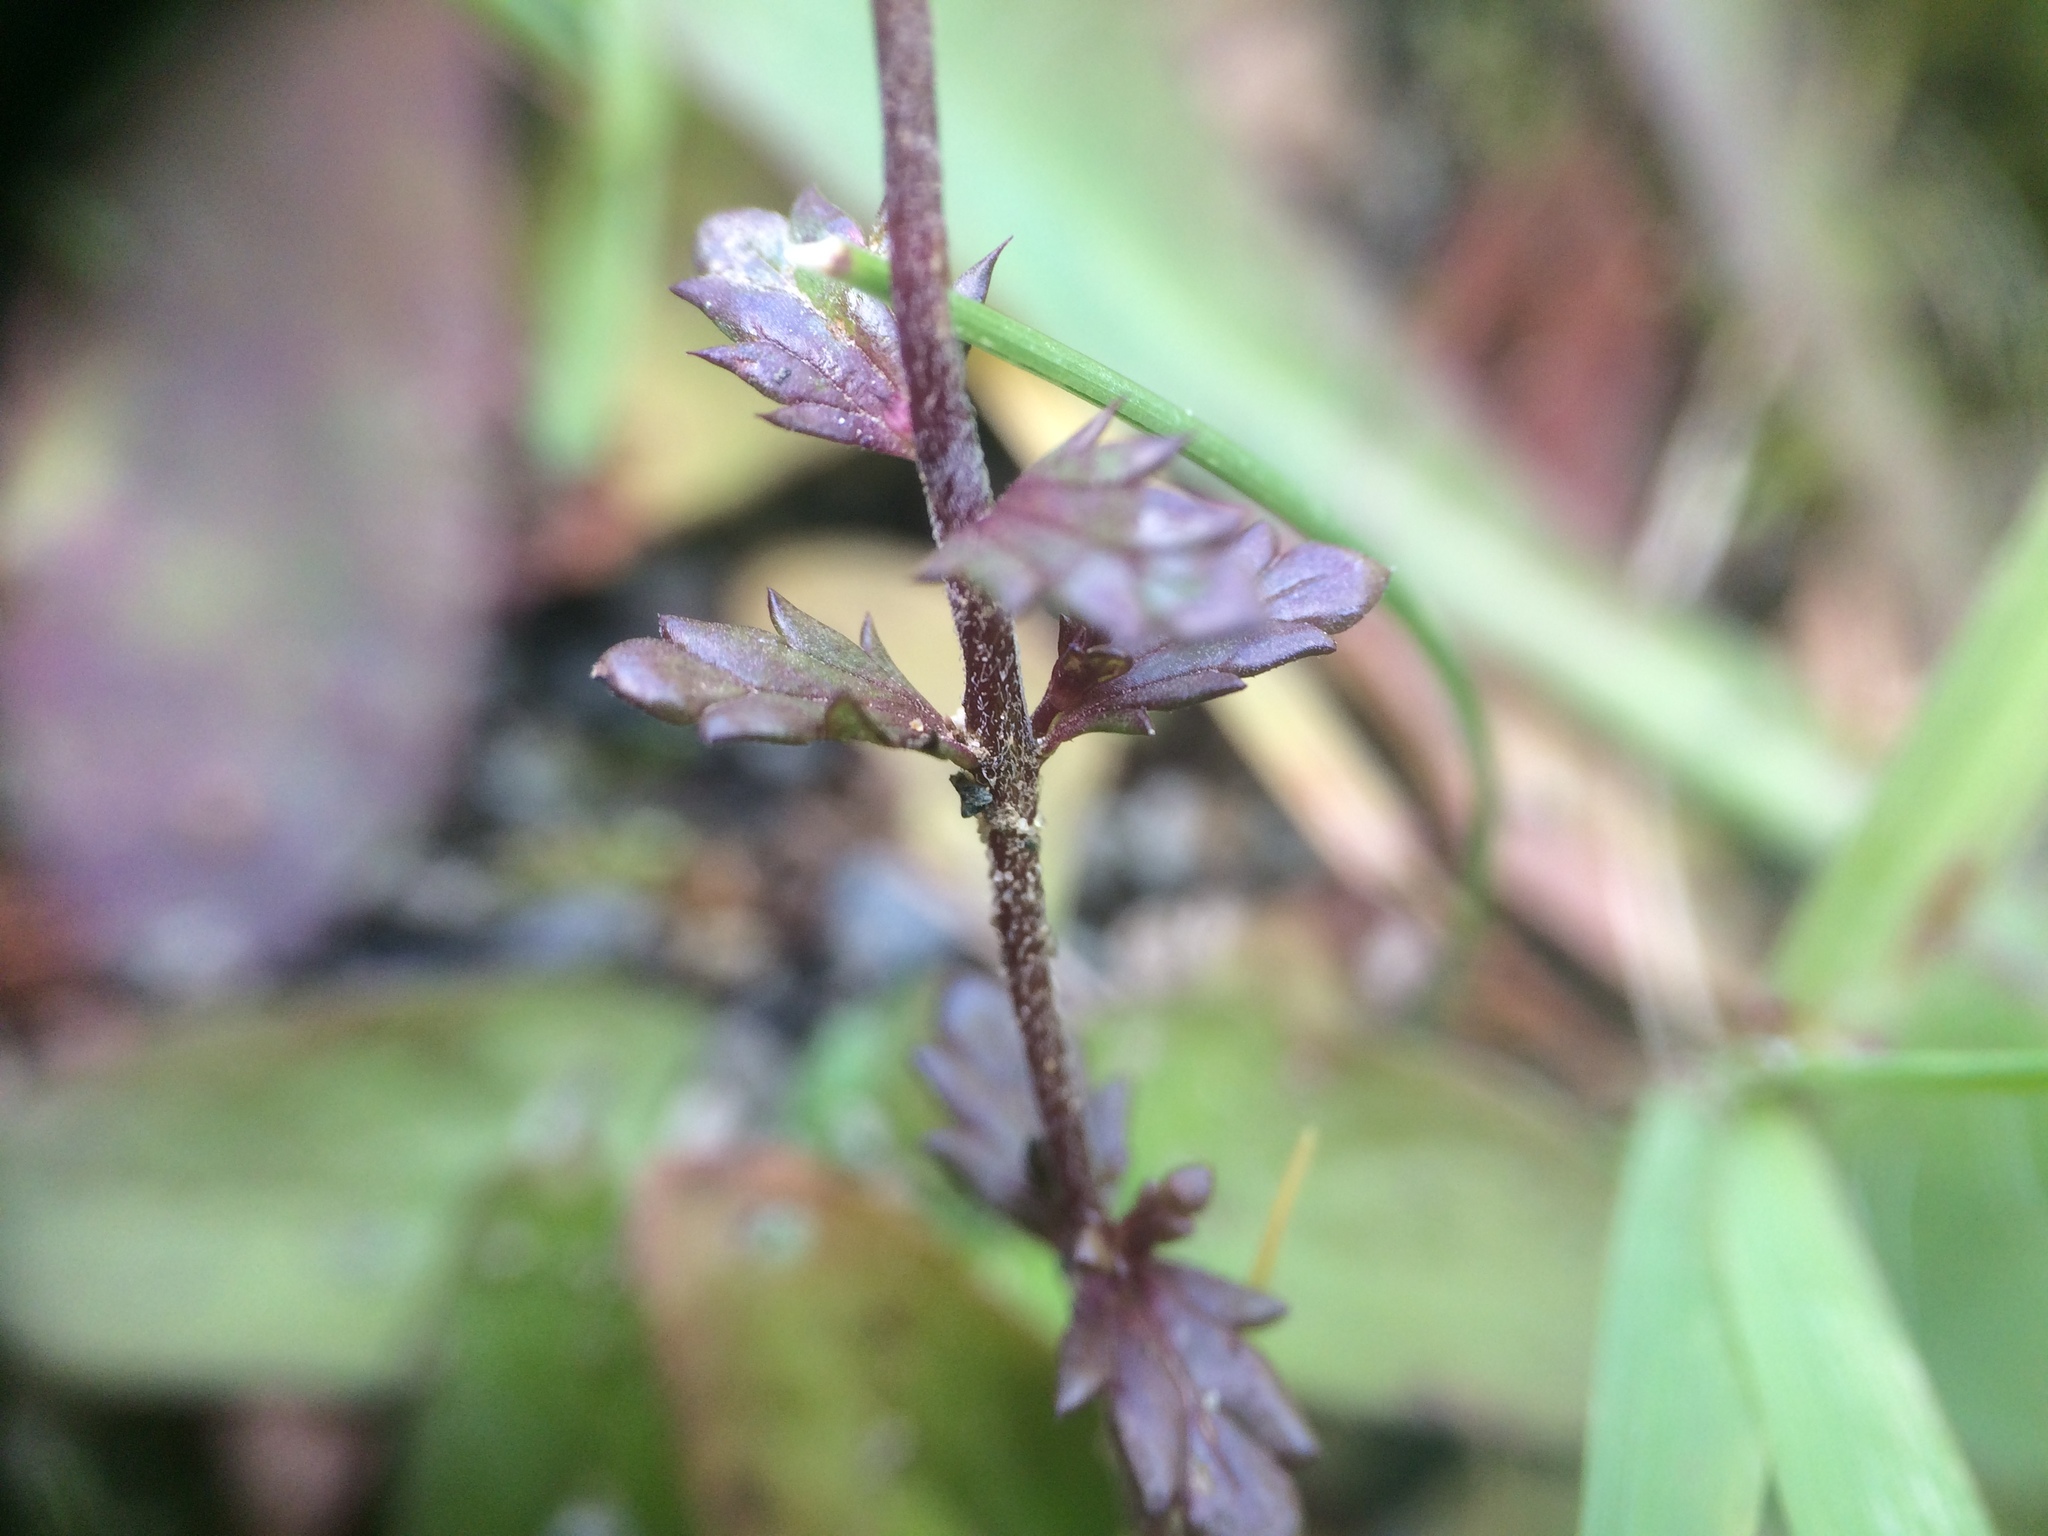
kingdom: Plantae
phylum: Tracheophyta
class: Magnoliopsida
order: Lamiales
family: Orobanchaceae
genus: Euphrasia
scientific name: Euphrasia nemorosa
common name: Common eyebright
